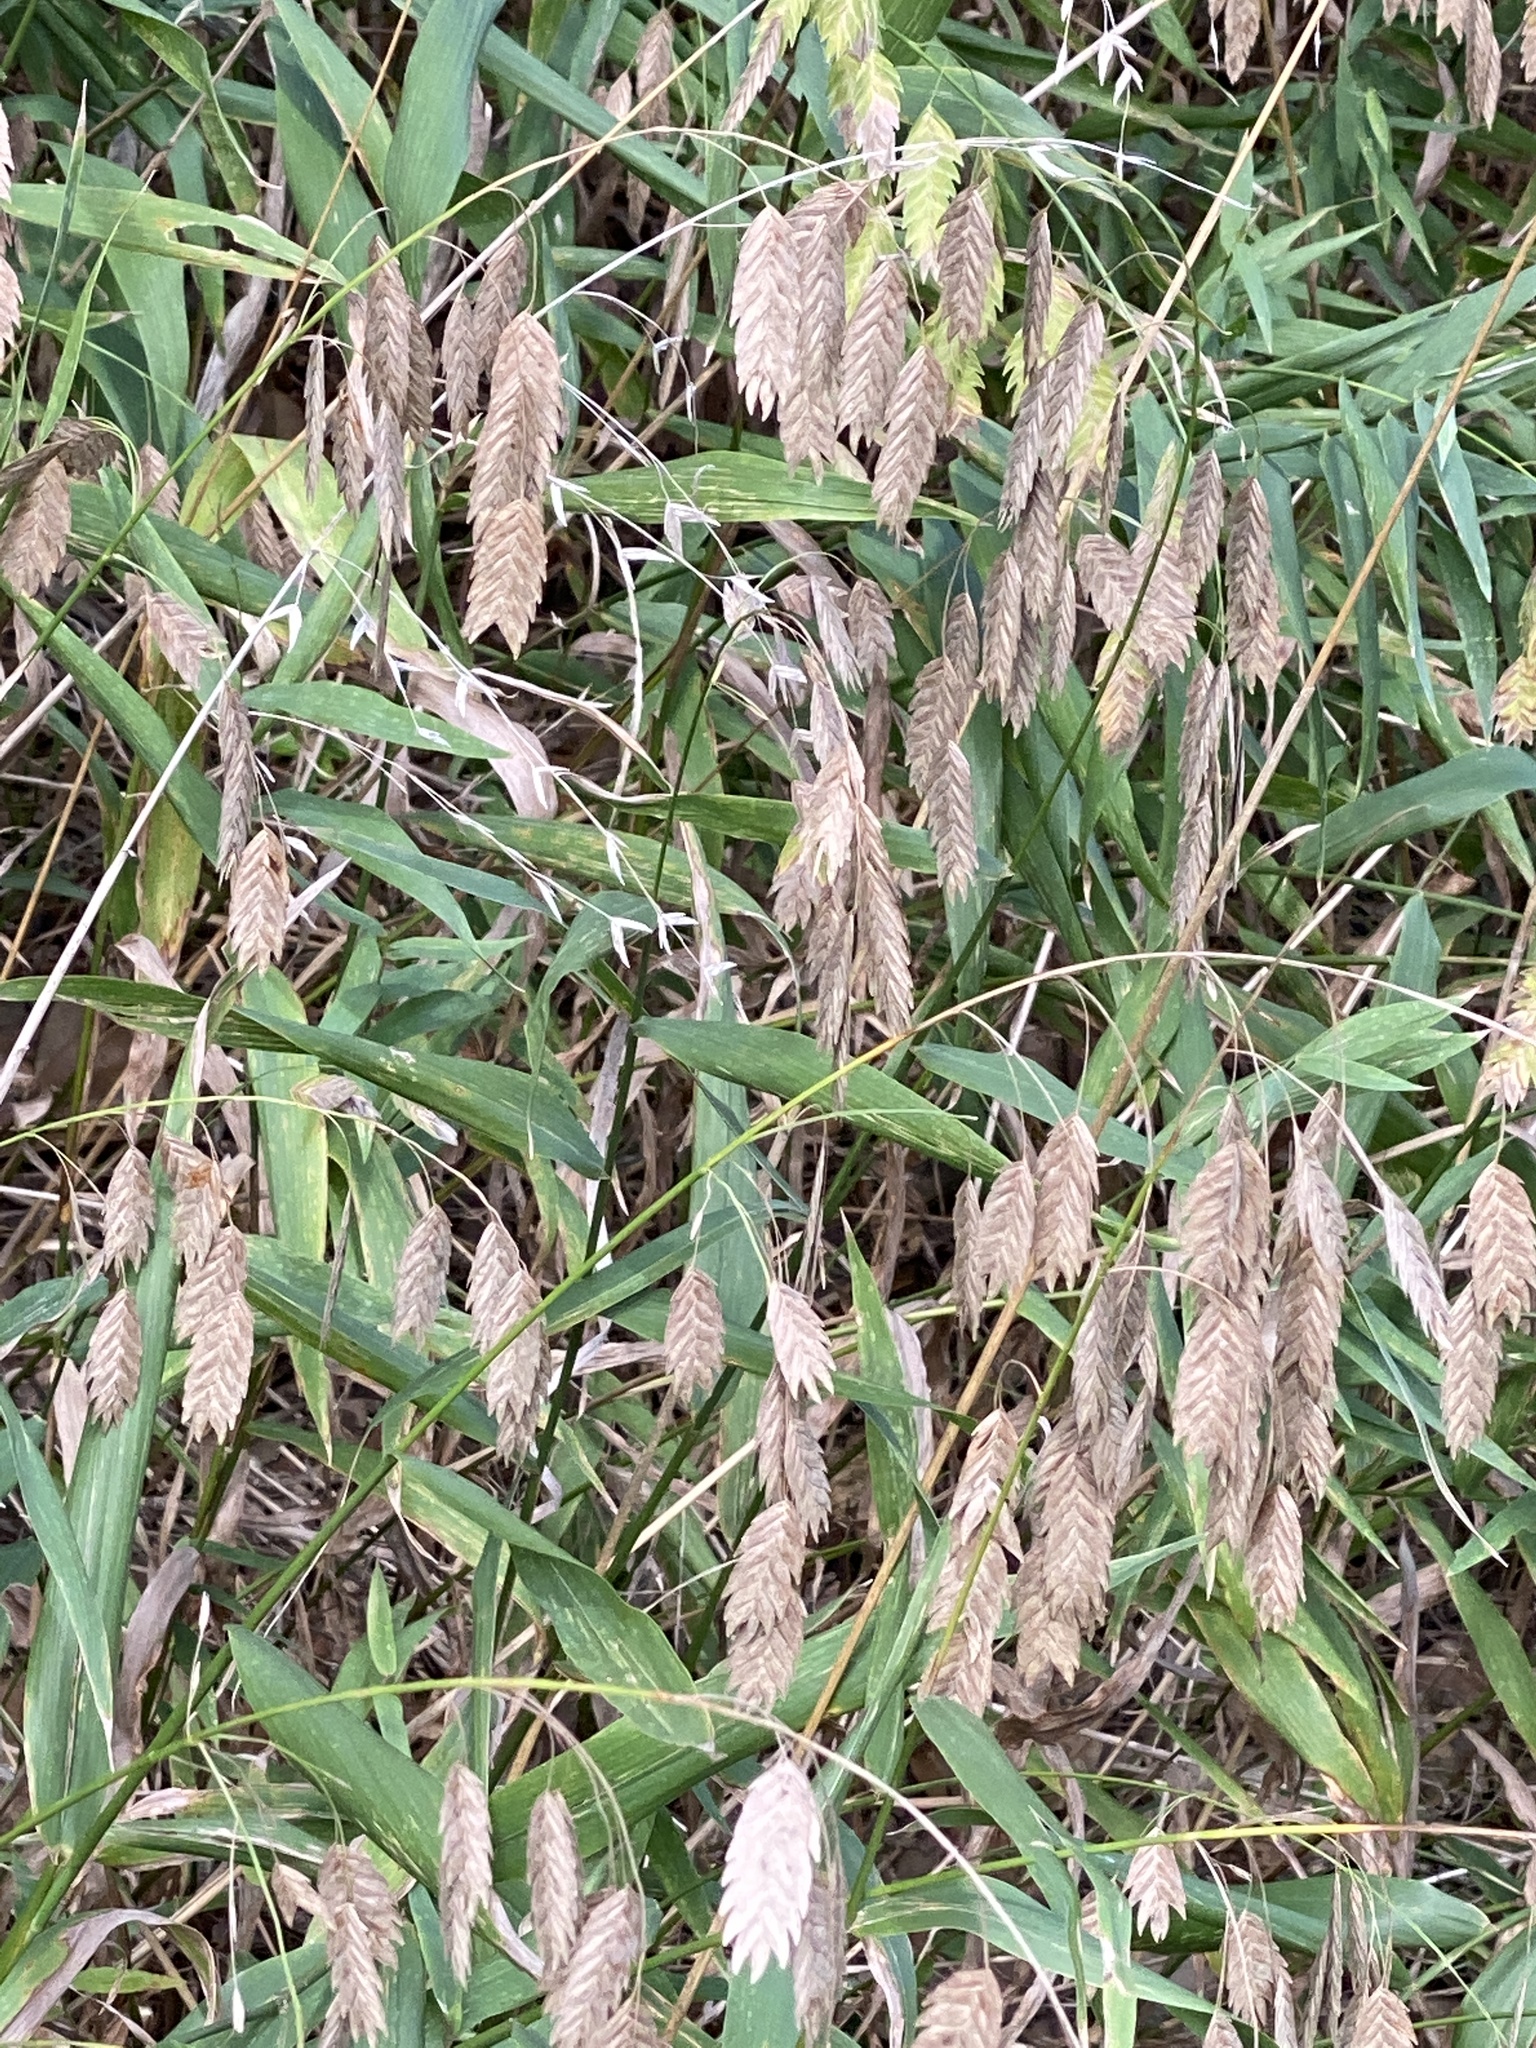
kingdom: Plantae
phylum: Tracheophyta
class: Liliopsida
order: Poales
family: Poaceae
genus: Chasmanthium
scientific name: Chasmanthium latifolium
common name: Broad-leaved chasmanthium
